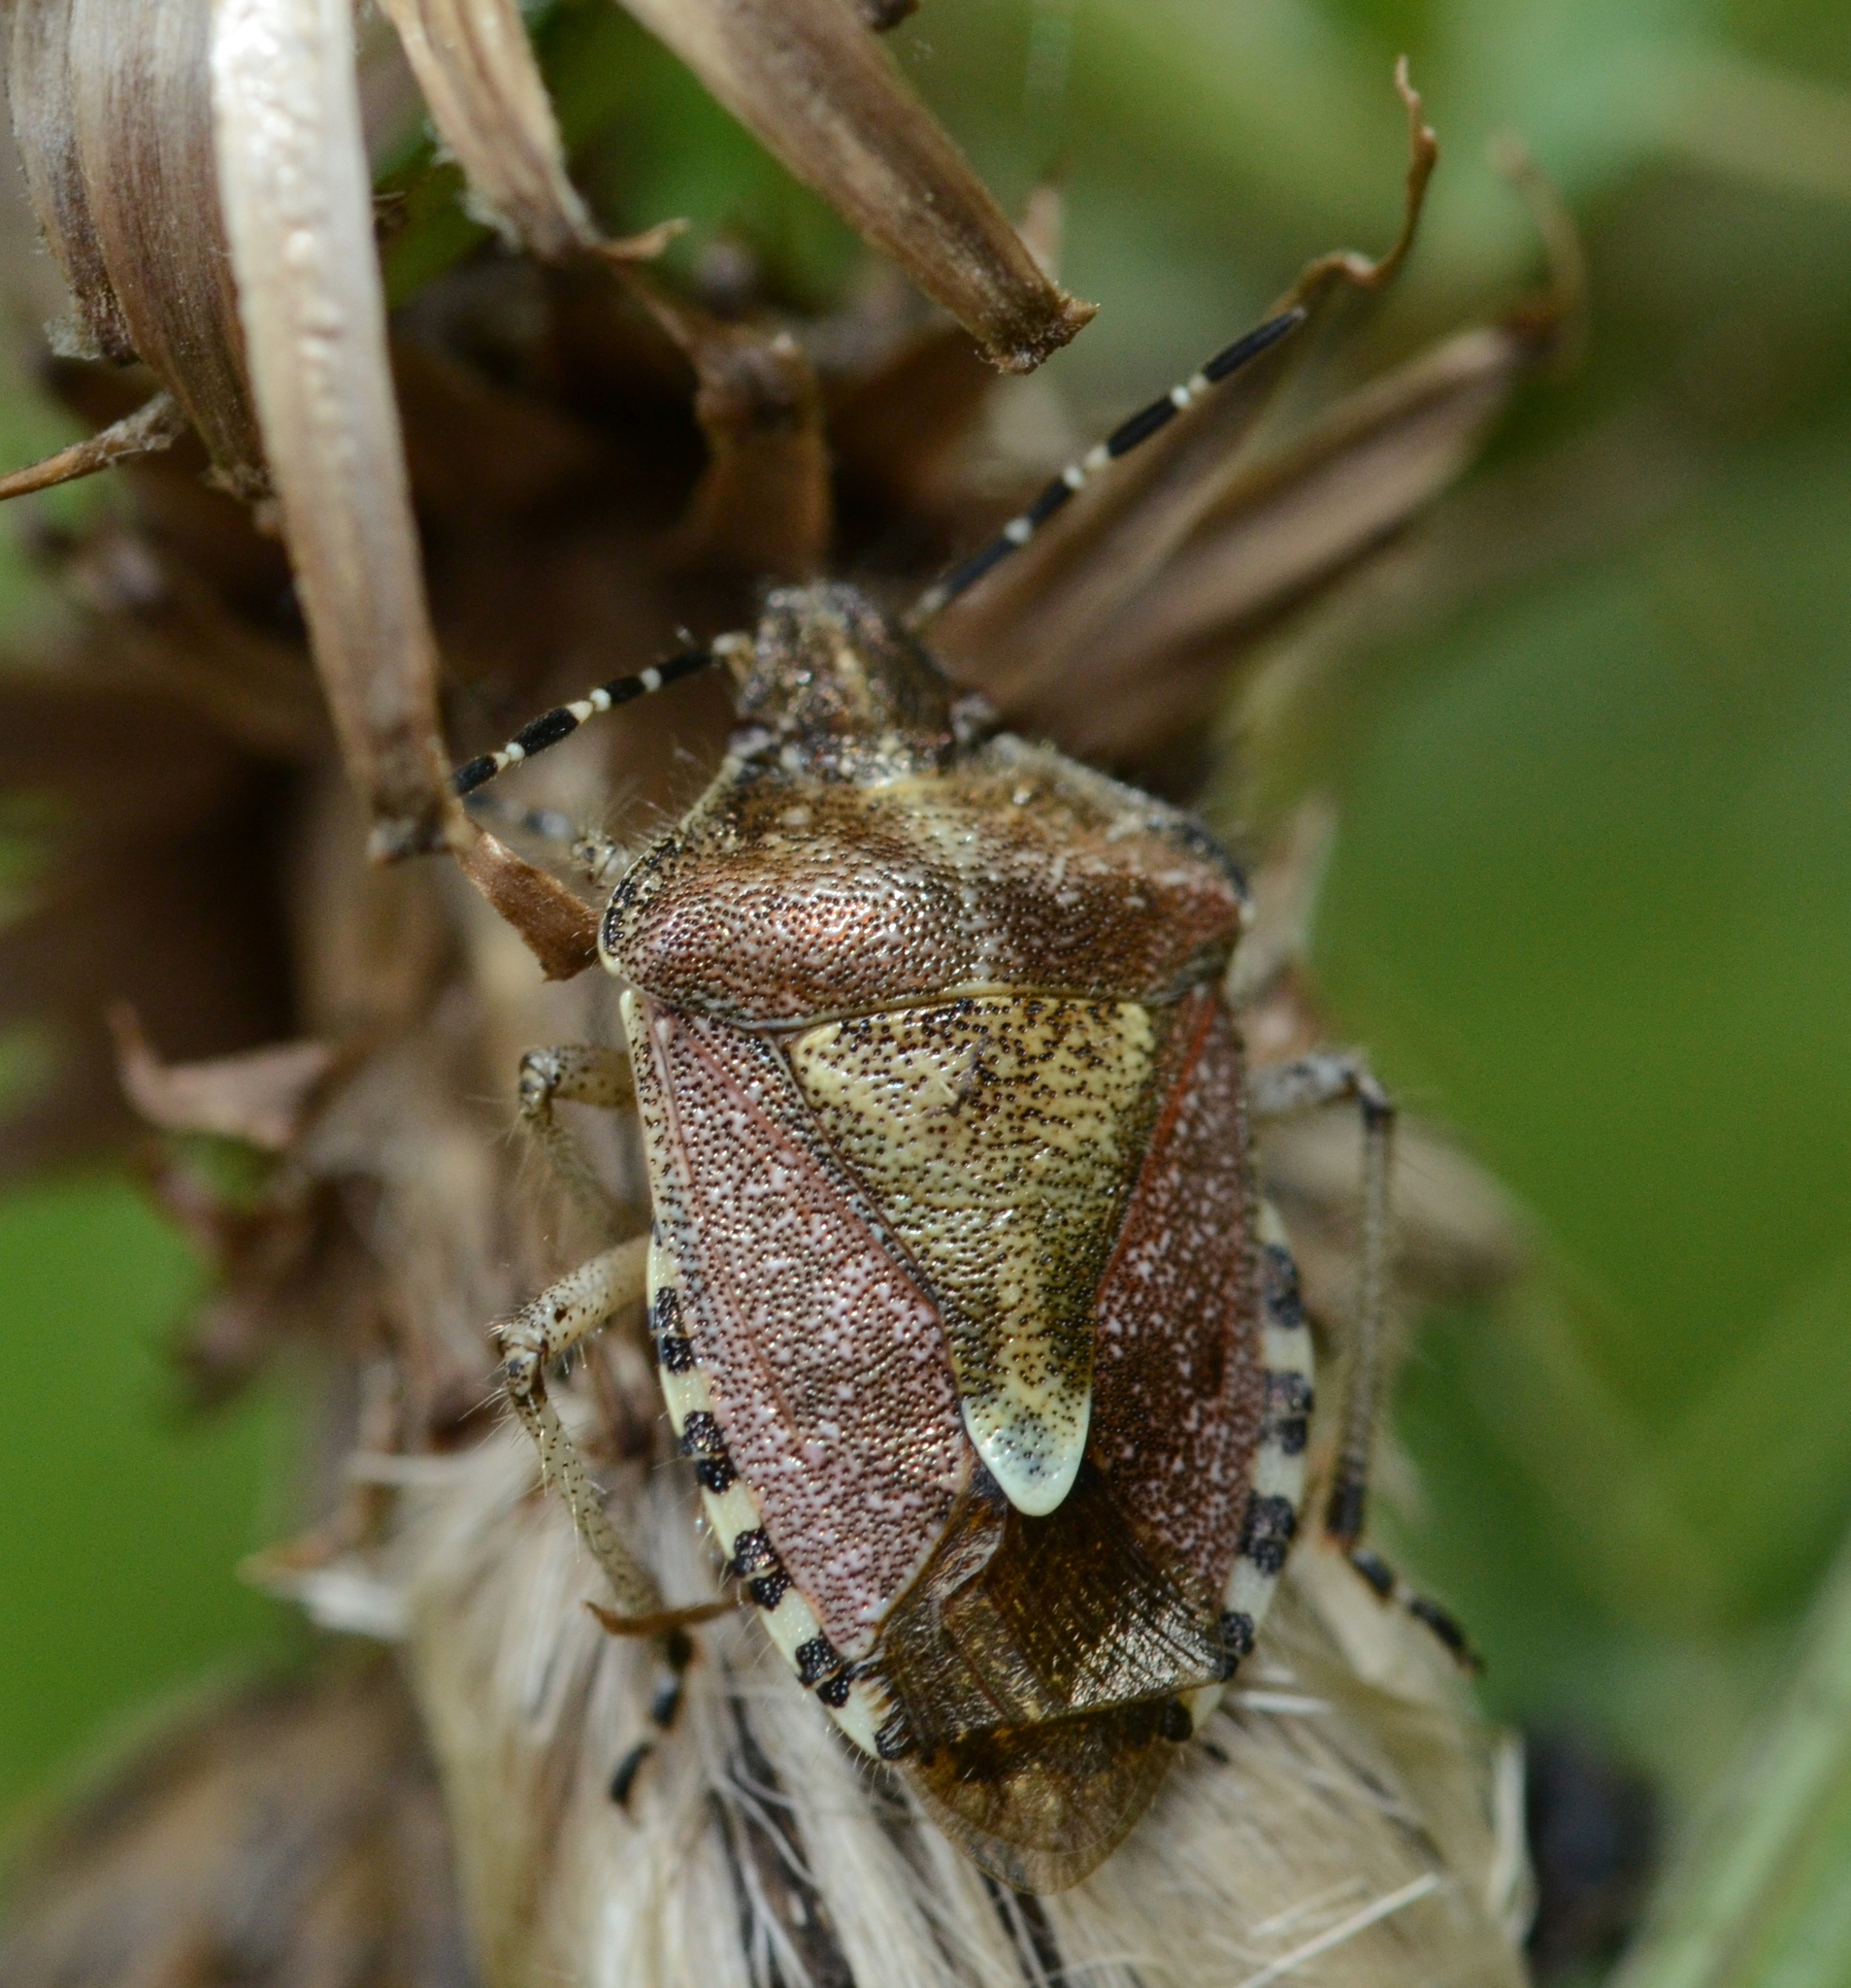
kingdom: Animalia
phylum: Arthropoda
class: Insecta
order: Hemiptera
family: Pentatomidae
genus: Dolycoris
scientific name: Dolycoris baccarum
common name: Sloe bug
